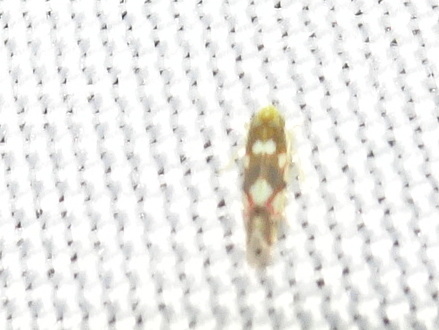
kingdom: Animalia
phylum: Arthropoda
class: Insecta
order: Hemiptera
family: Cicadellidae
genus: Erythroneura
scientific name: Erythroneura elegans
